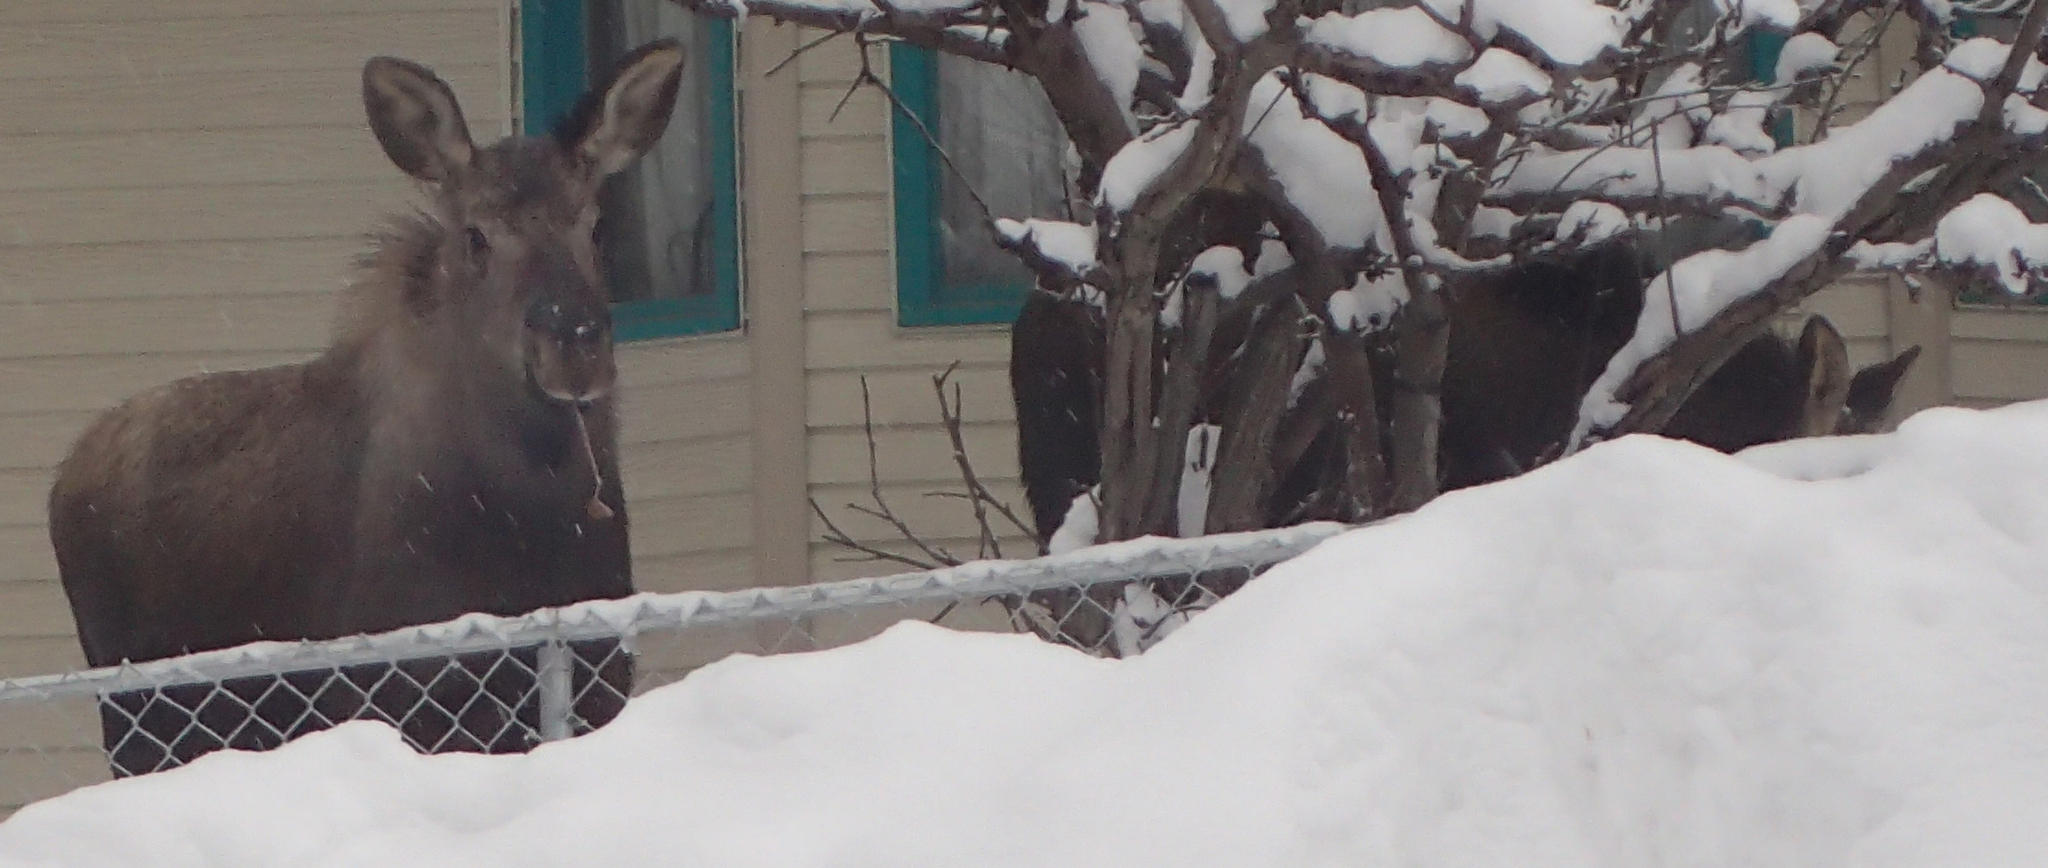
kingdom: Animalia
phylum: Chordata
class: Mammalia
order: Artiodactyla
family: Cervidae
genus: Alces
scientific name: Alces alces
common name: Moose
